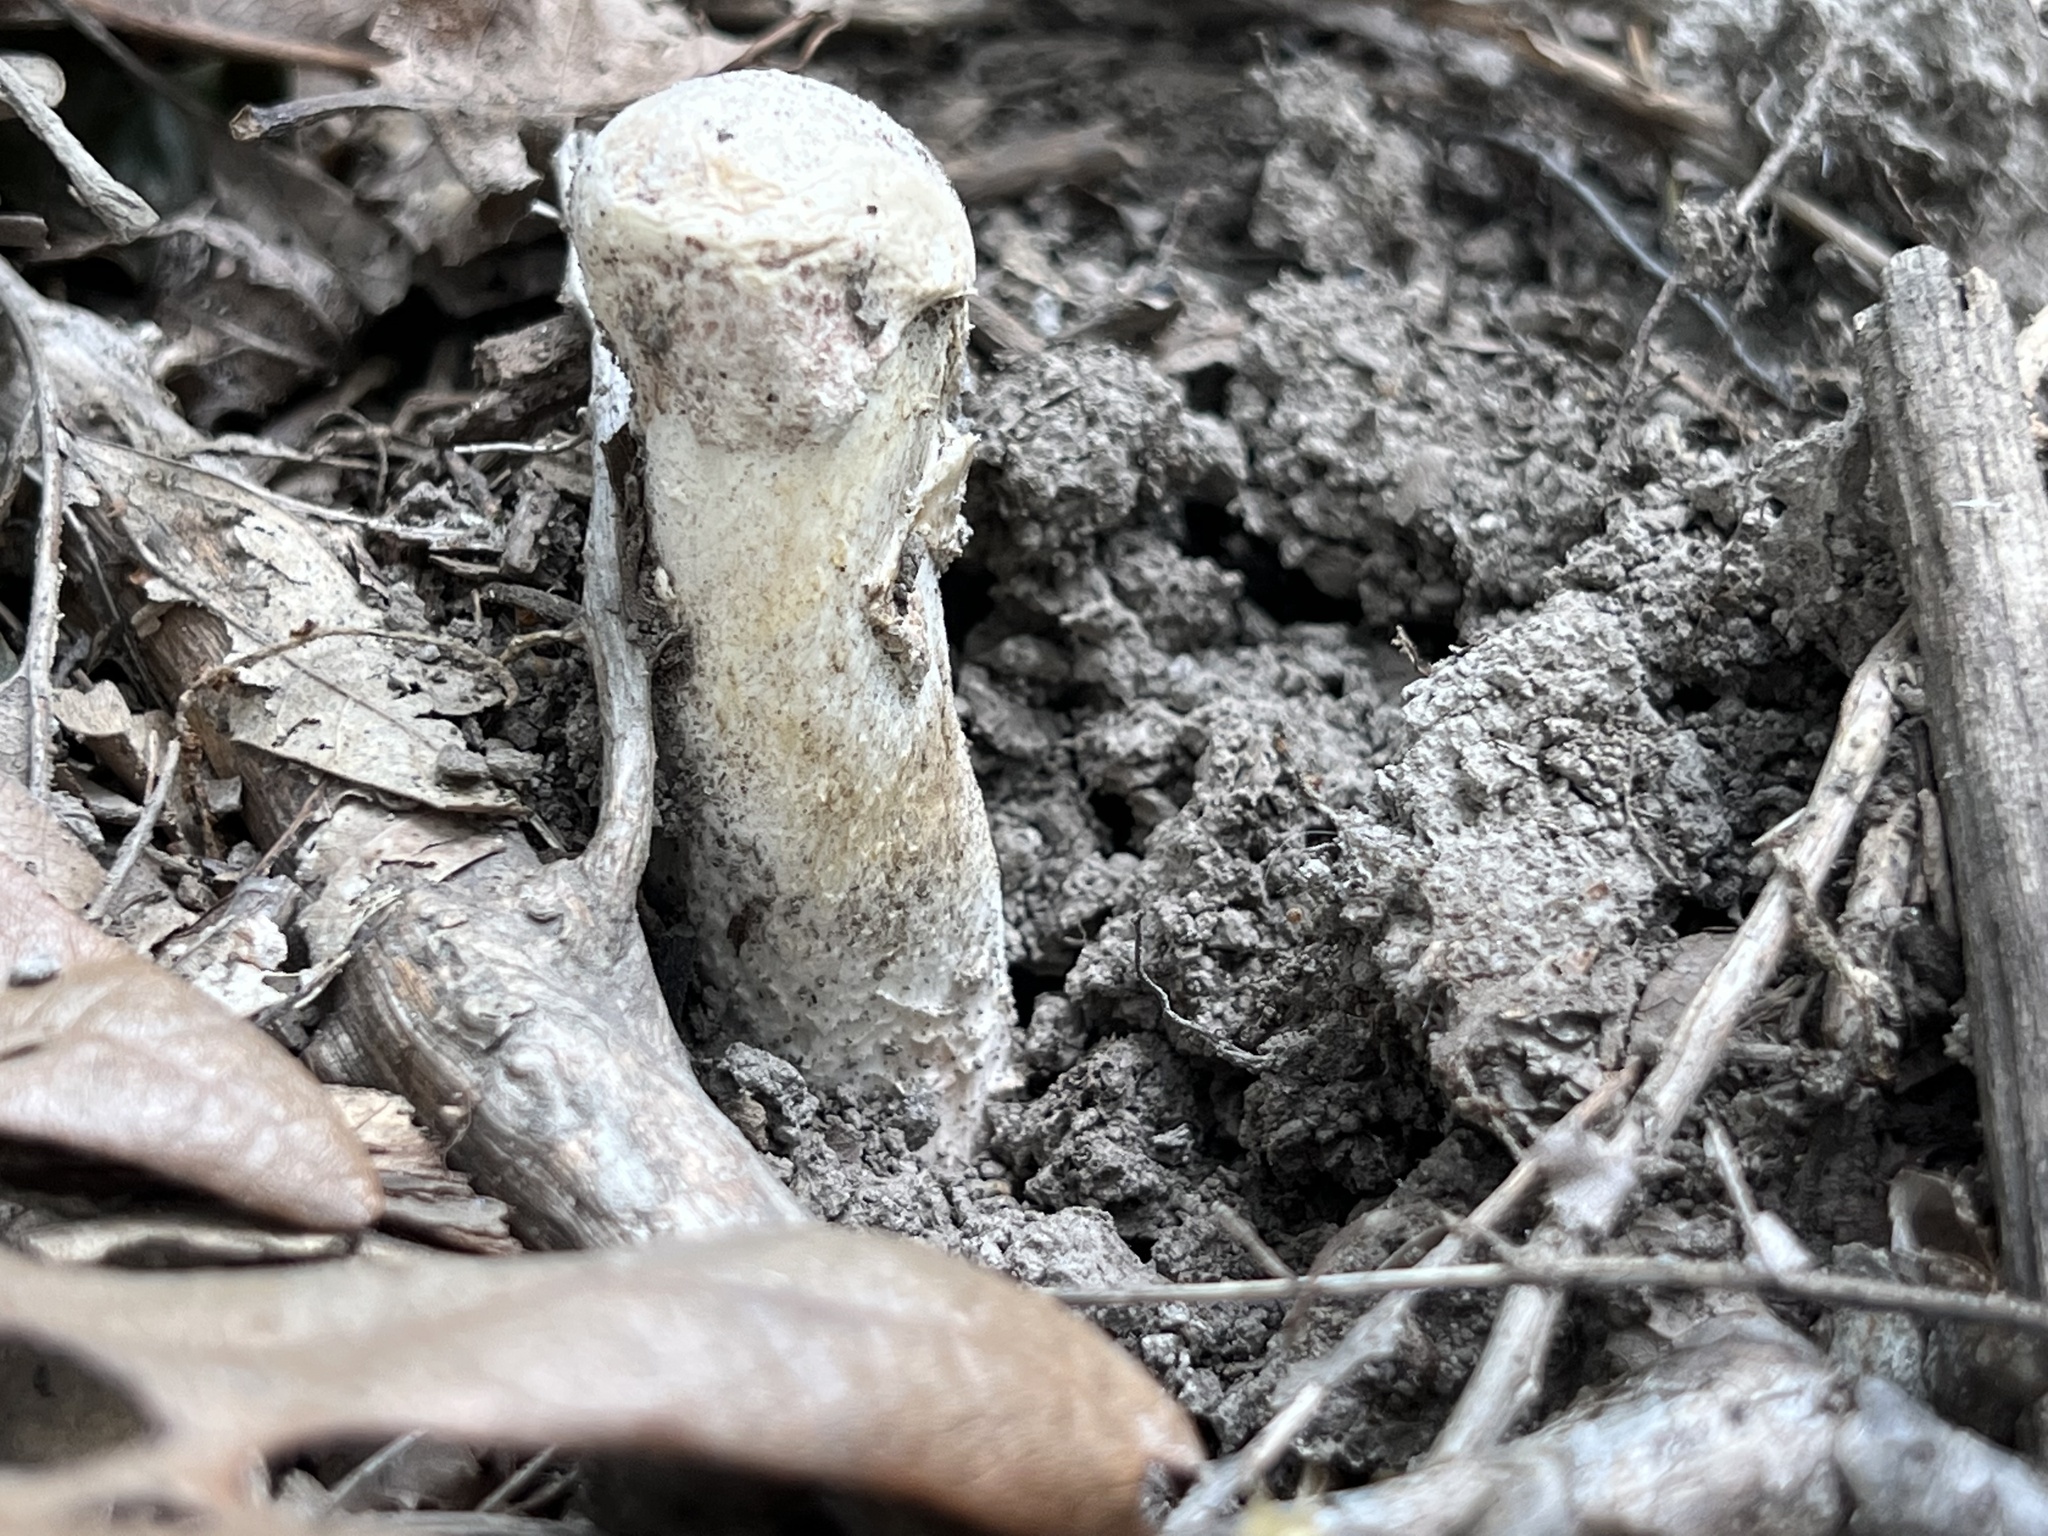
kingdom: Fungi
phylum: Ascomycota
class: Sordariomycetes
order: Hypocreales
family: Hypocreaceae
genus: Hypomyces
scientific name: Hypomyces hyalinus
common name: Amanita mold
